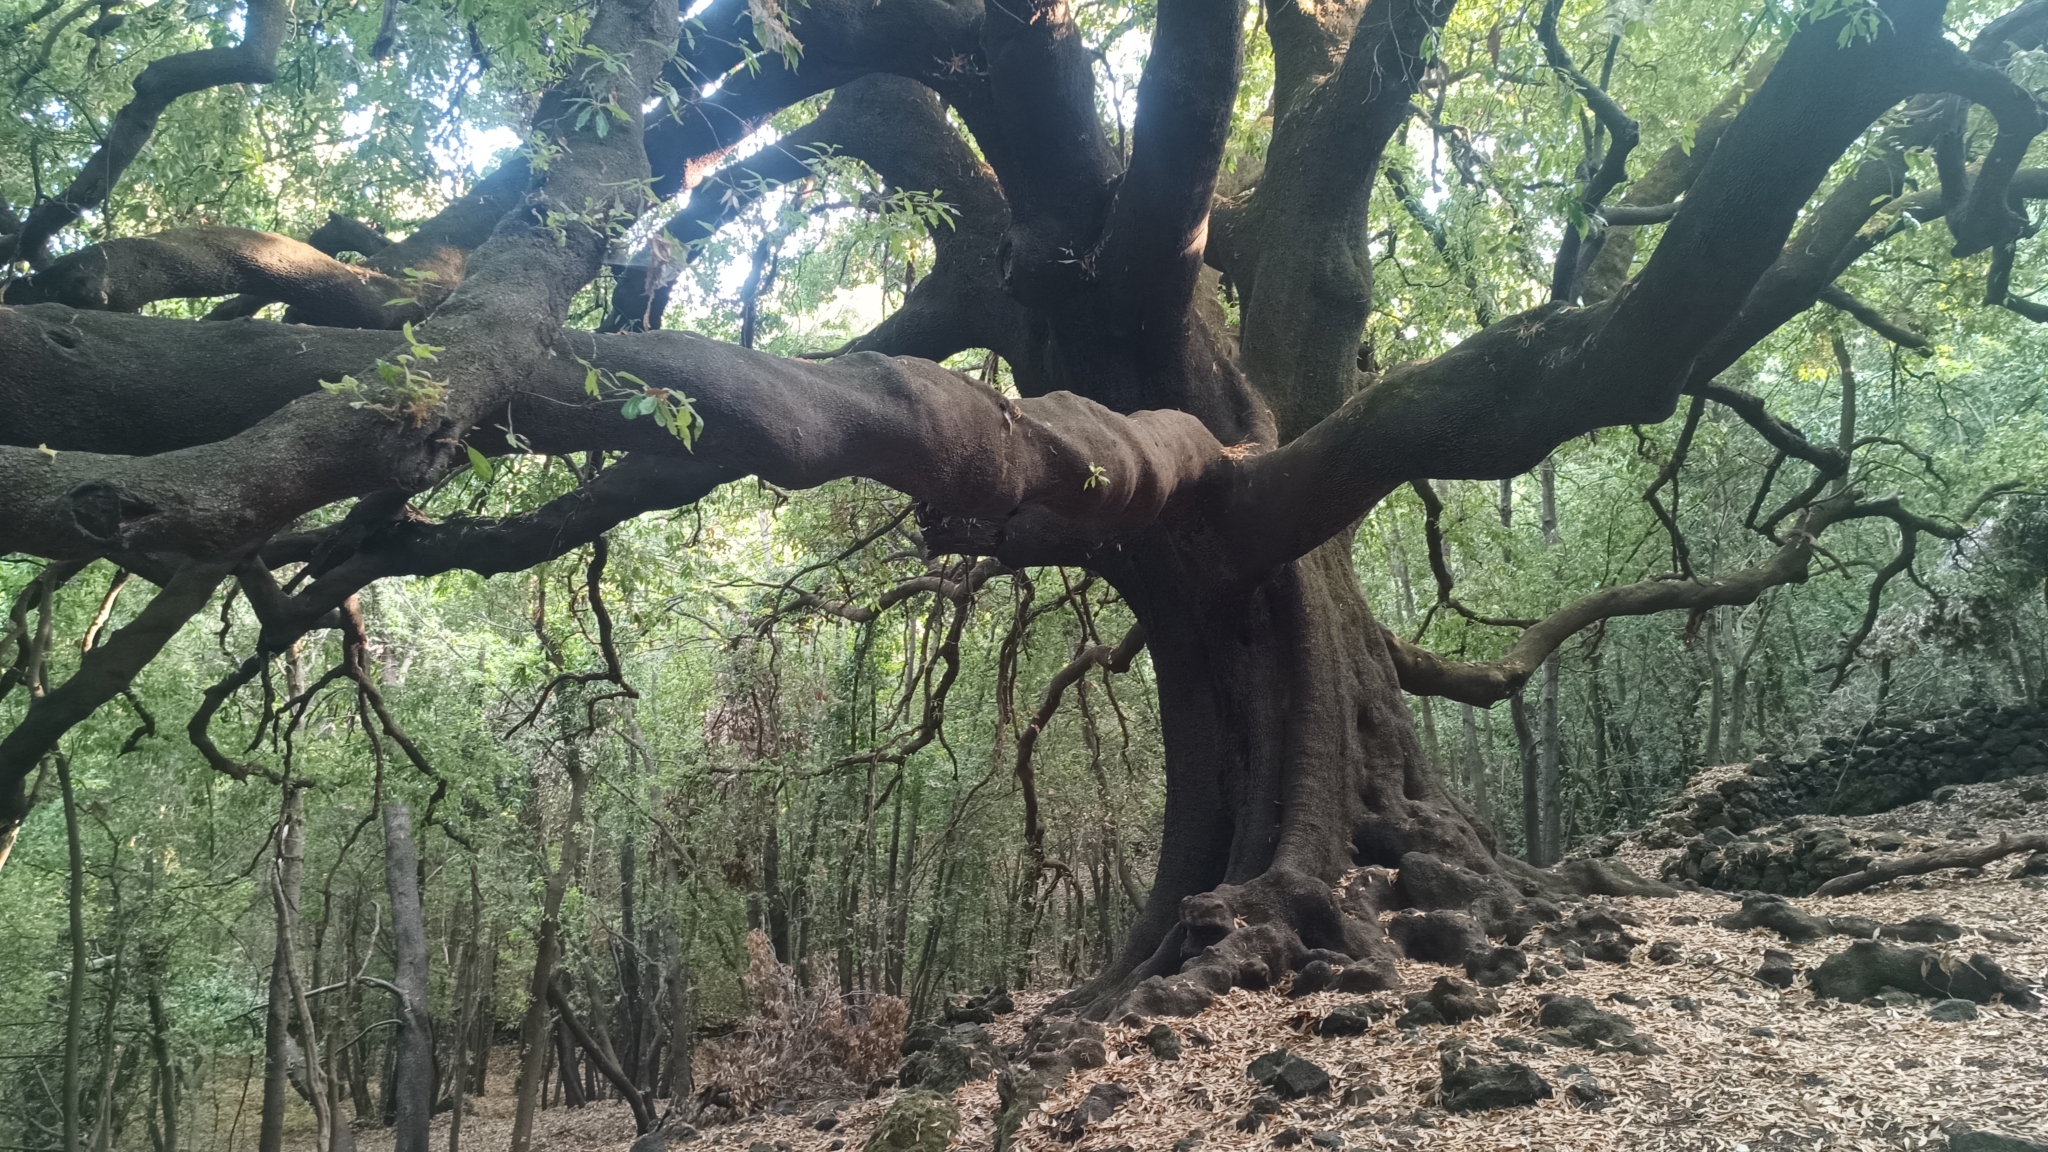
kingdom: Plantae
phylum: Tracheophyta
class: Magnoliopsida
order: Fagales
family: Fagaceae
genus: Quercus
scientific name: Quercus ilex
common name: Evergreen oak
